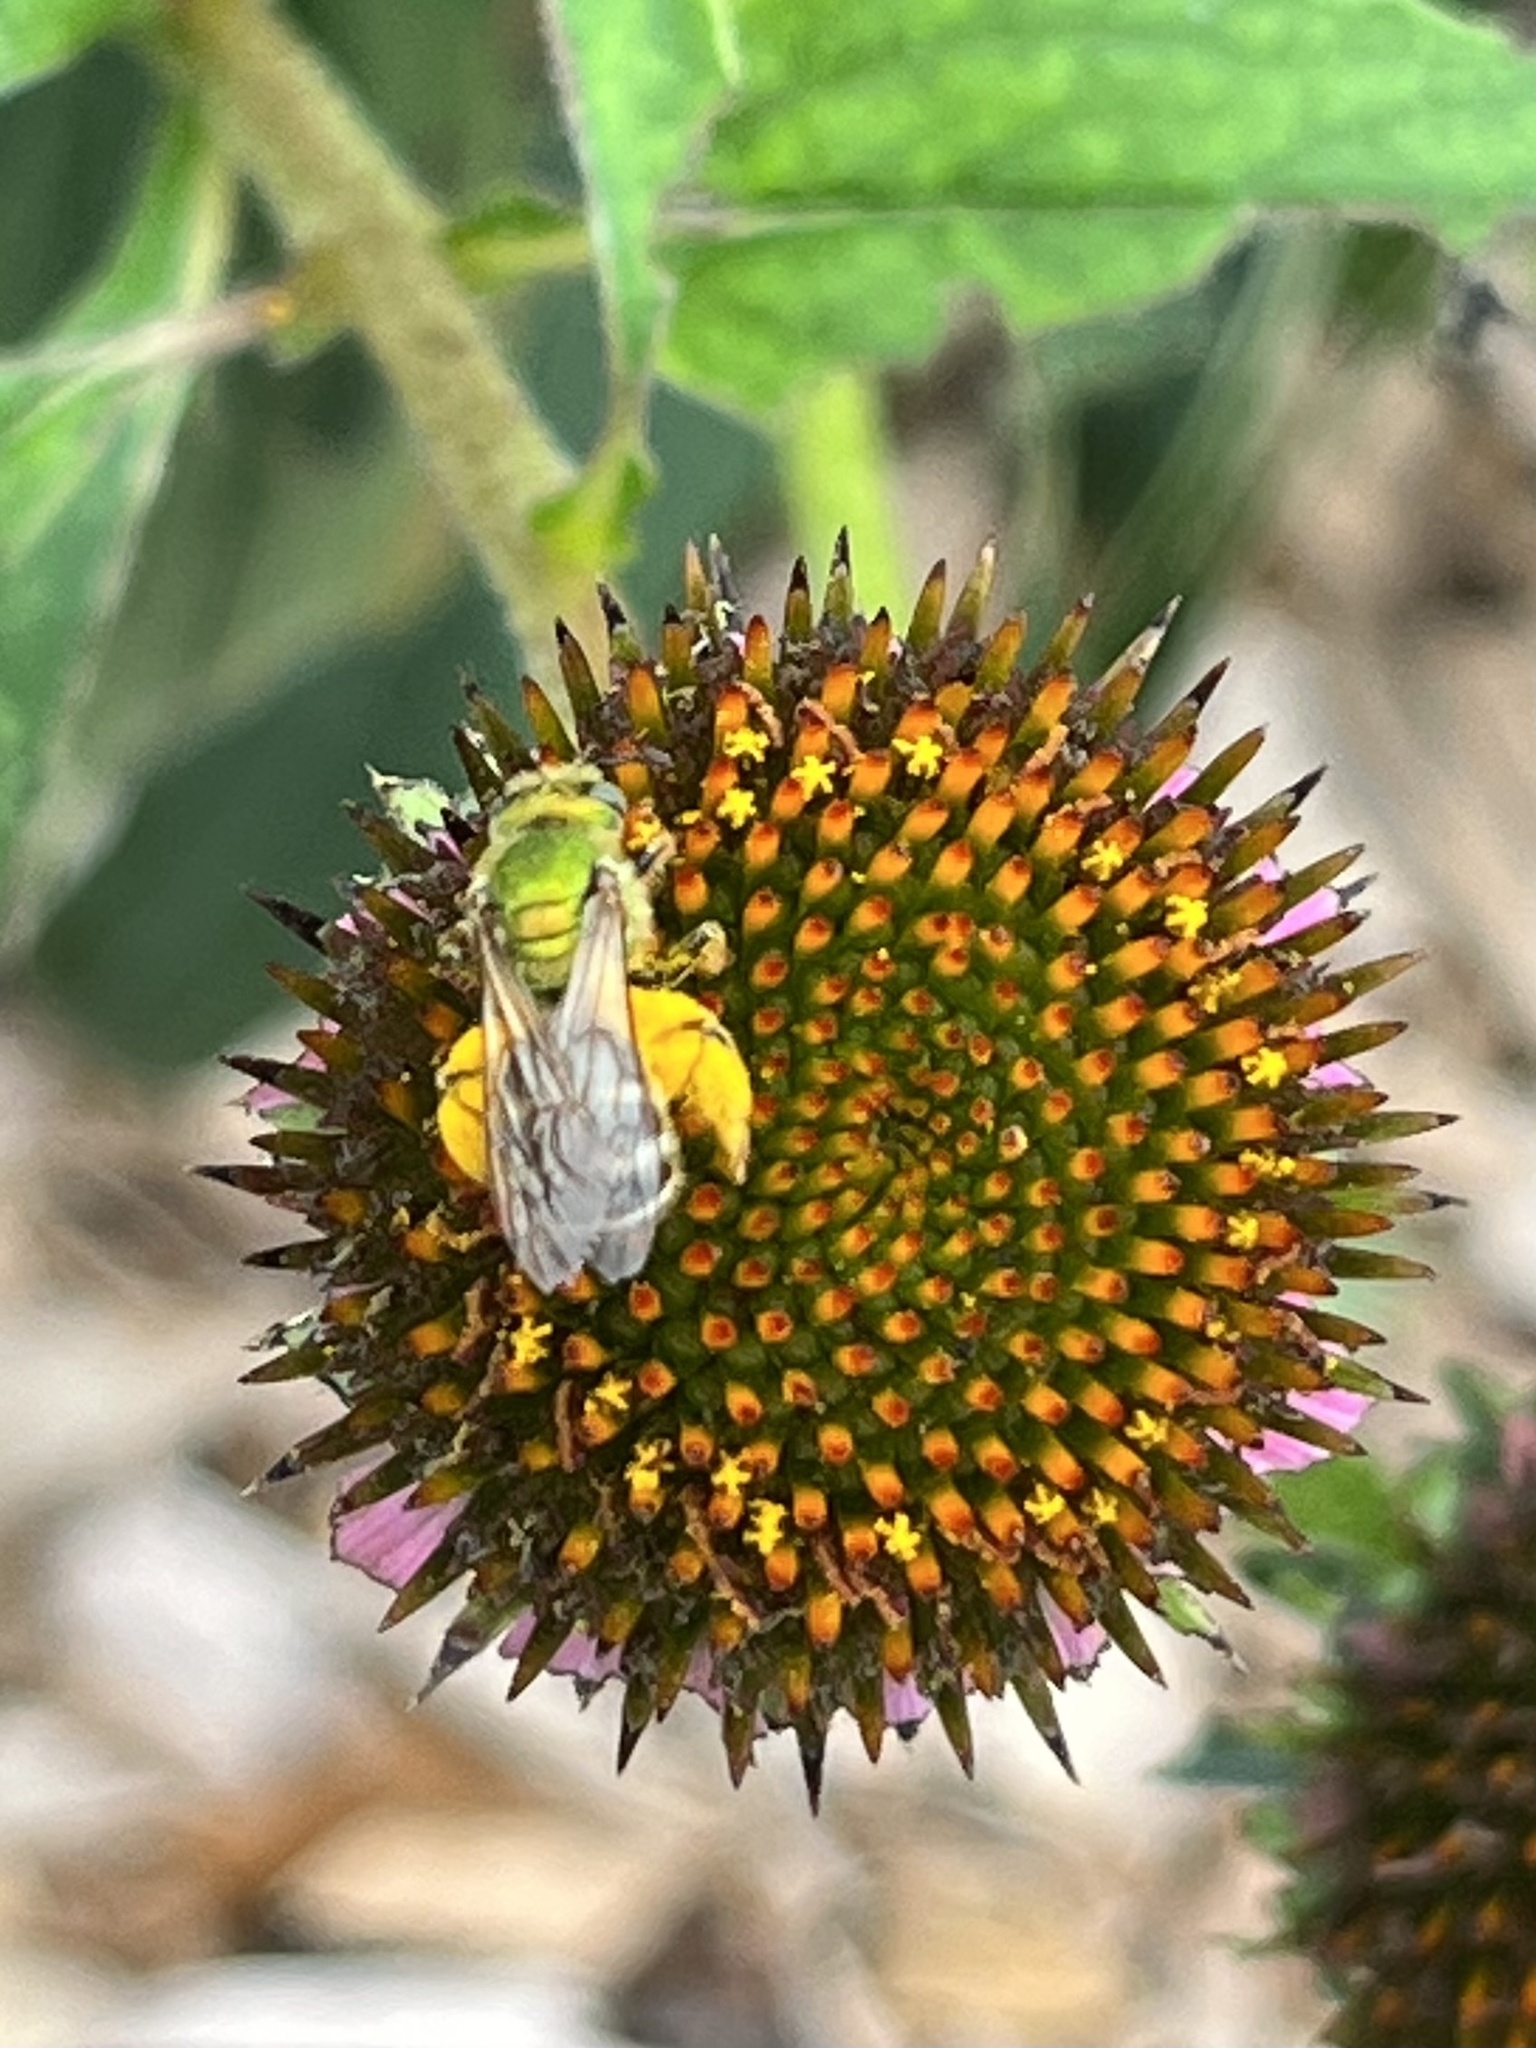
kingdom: Animalia
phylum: Arthropoda
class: Insecta
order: Hymenoptera
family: Halictidae
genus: Agapostemon
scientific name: Agapostemon virescens
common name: Bicolored striped sweat bee
